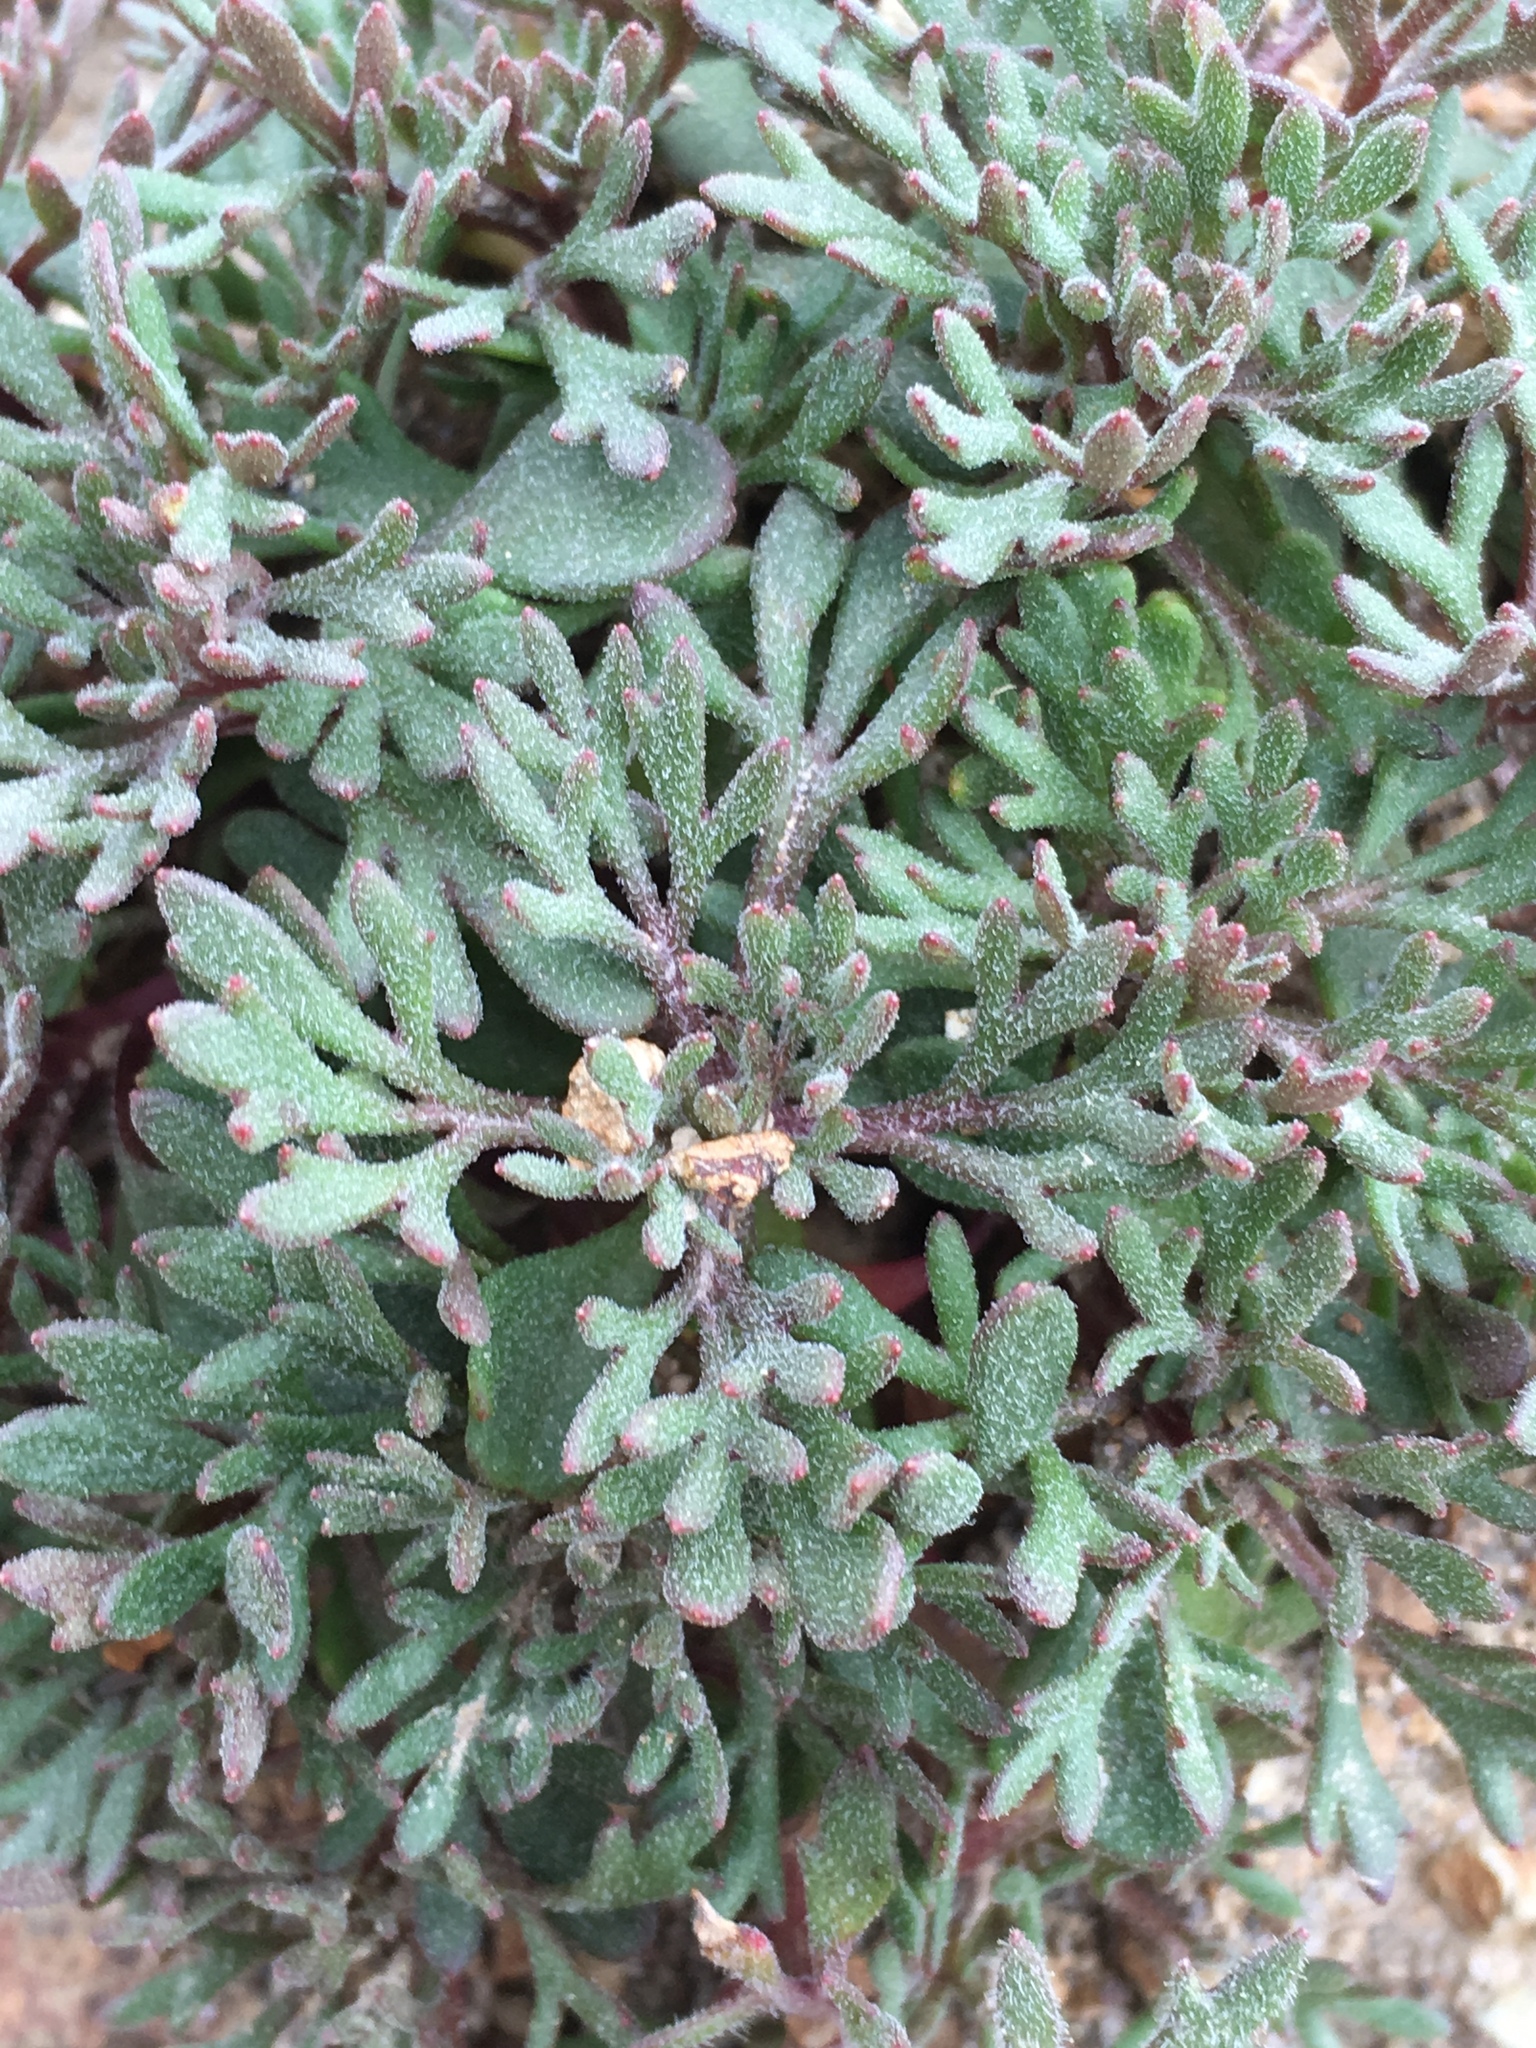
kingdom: Plantae
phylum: Tracheophyta
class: Magnoliopsida
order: Ericales
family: Polemoniaceae
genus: Collomia
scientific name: Collomia larsenii
